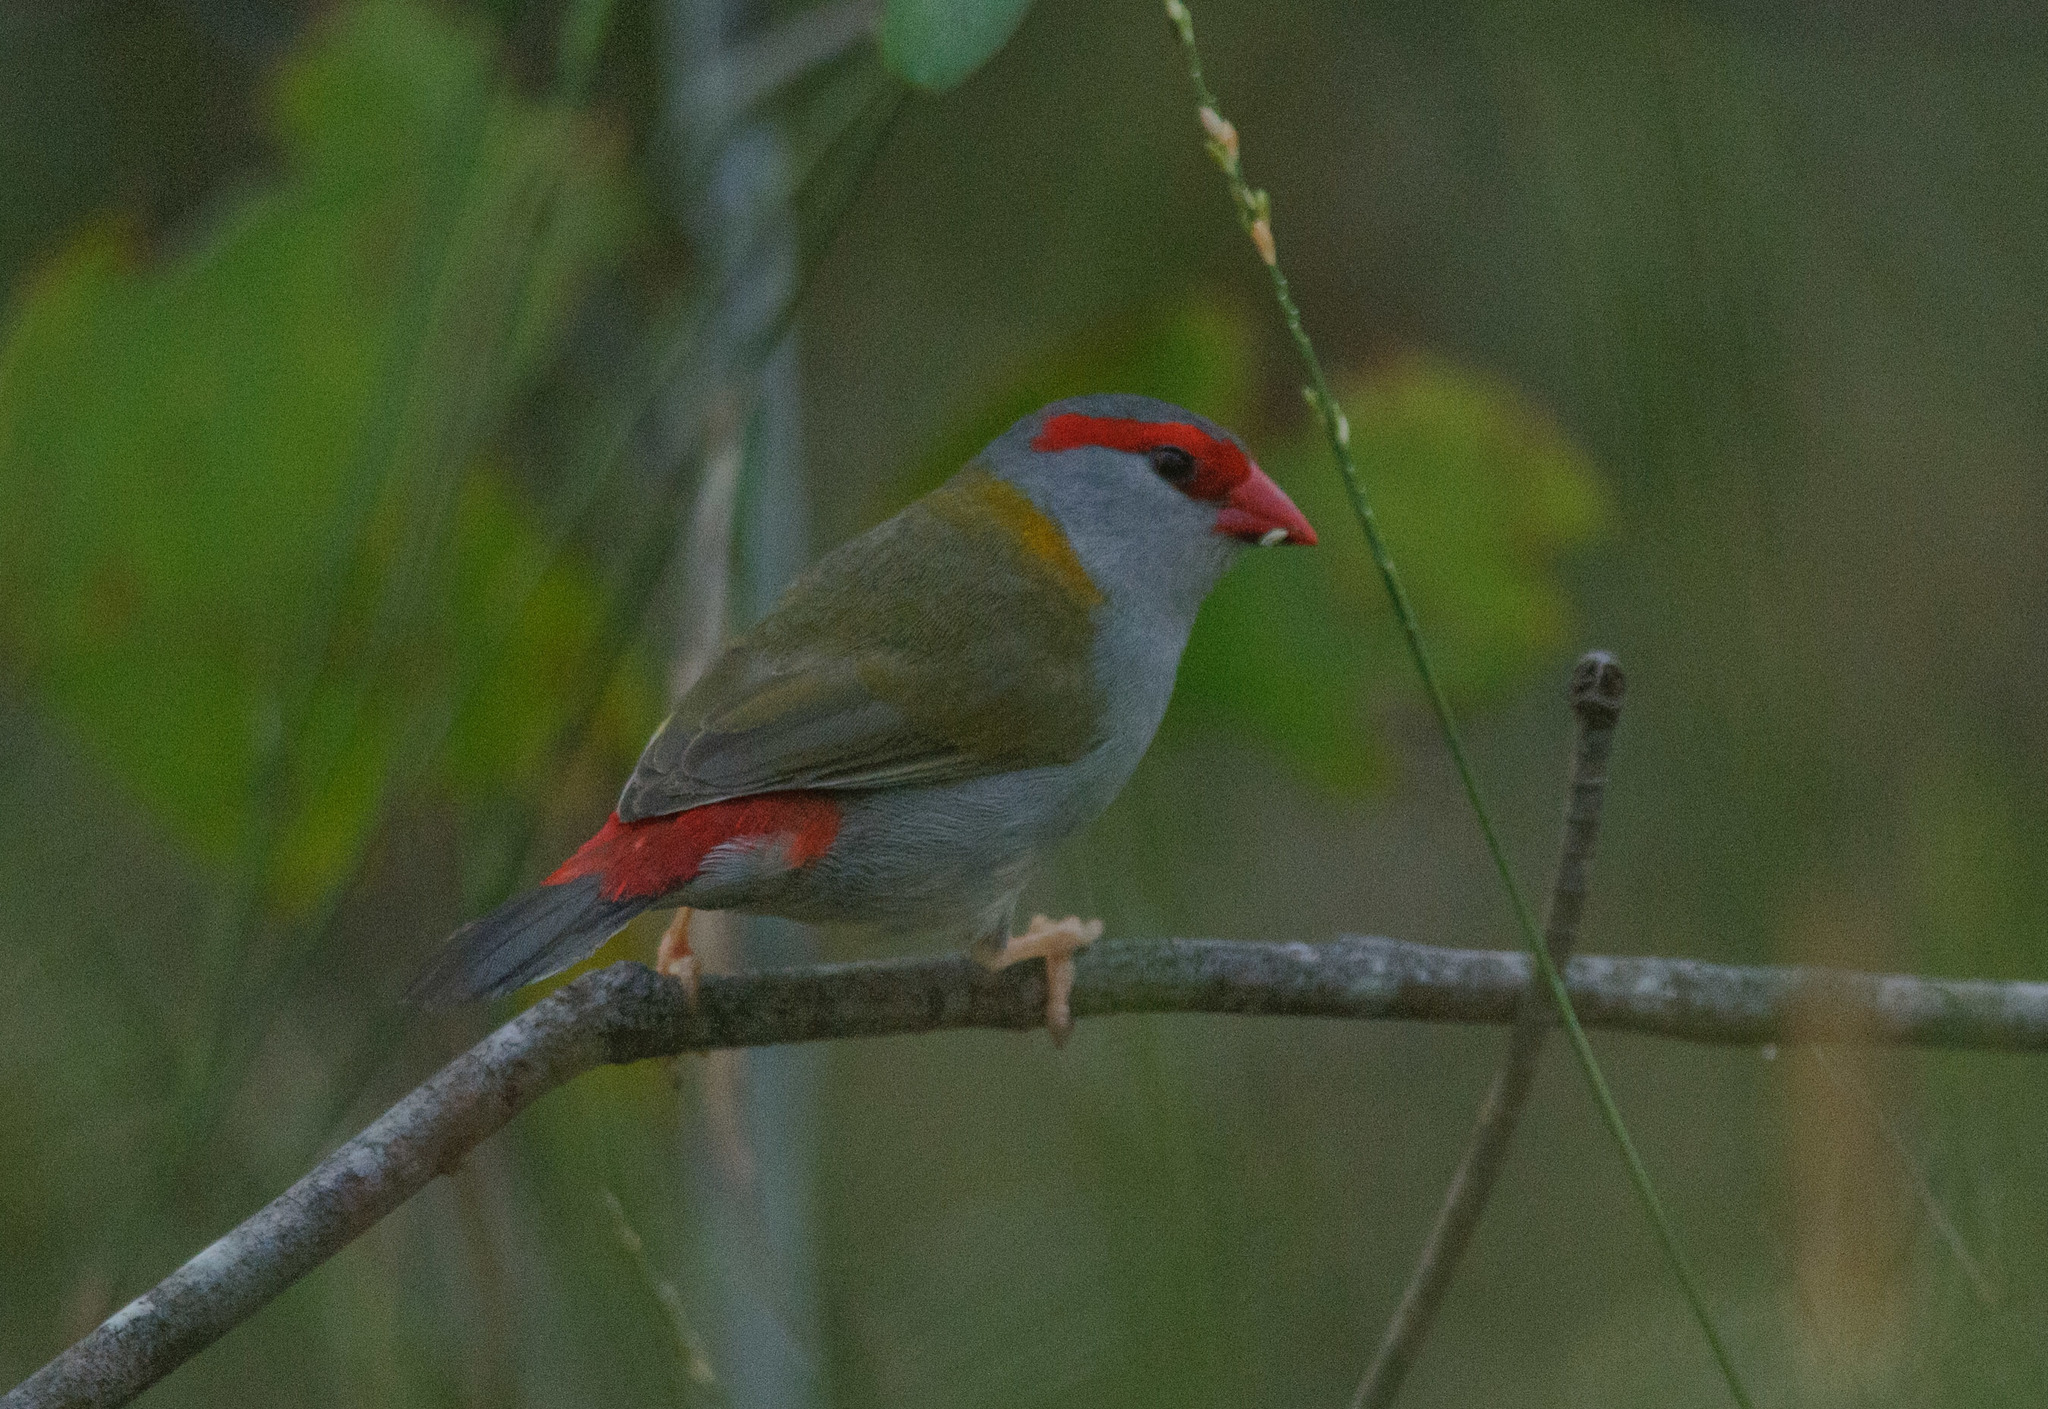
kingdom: Animalia
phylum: Chordata
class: Aves
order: Passeriformes
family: Estrildidae
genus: Neochmia
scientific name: Neochmia temporalis
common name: Red-browed finch
